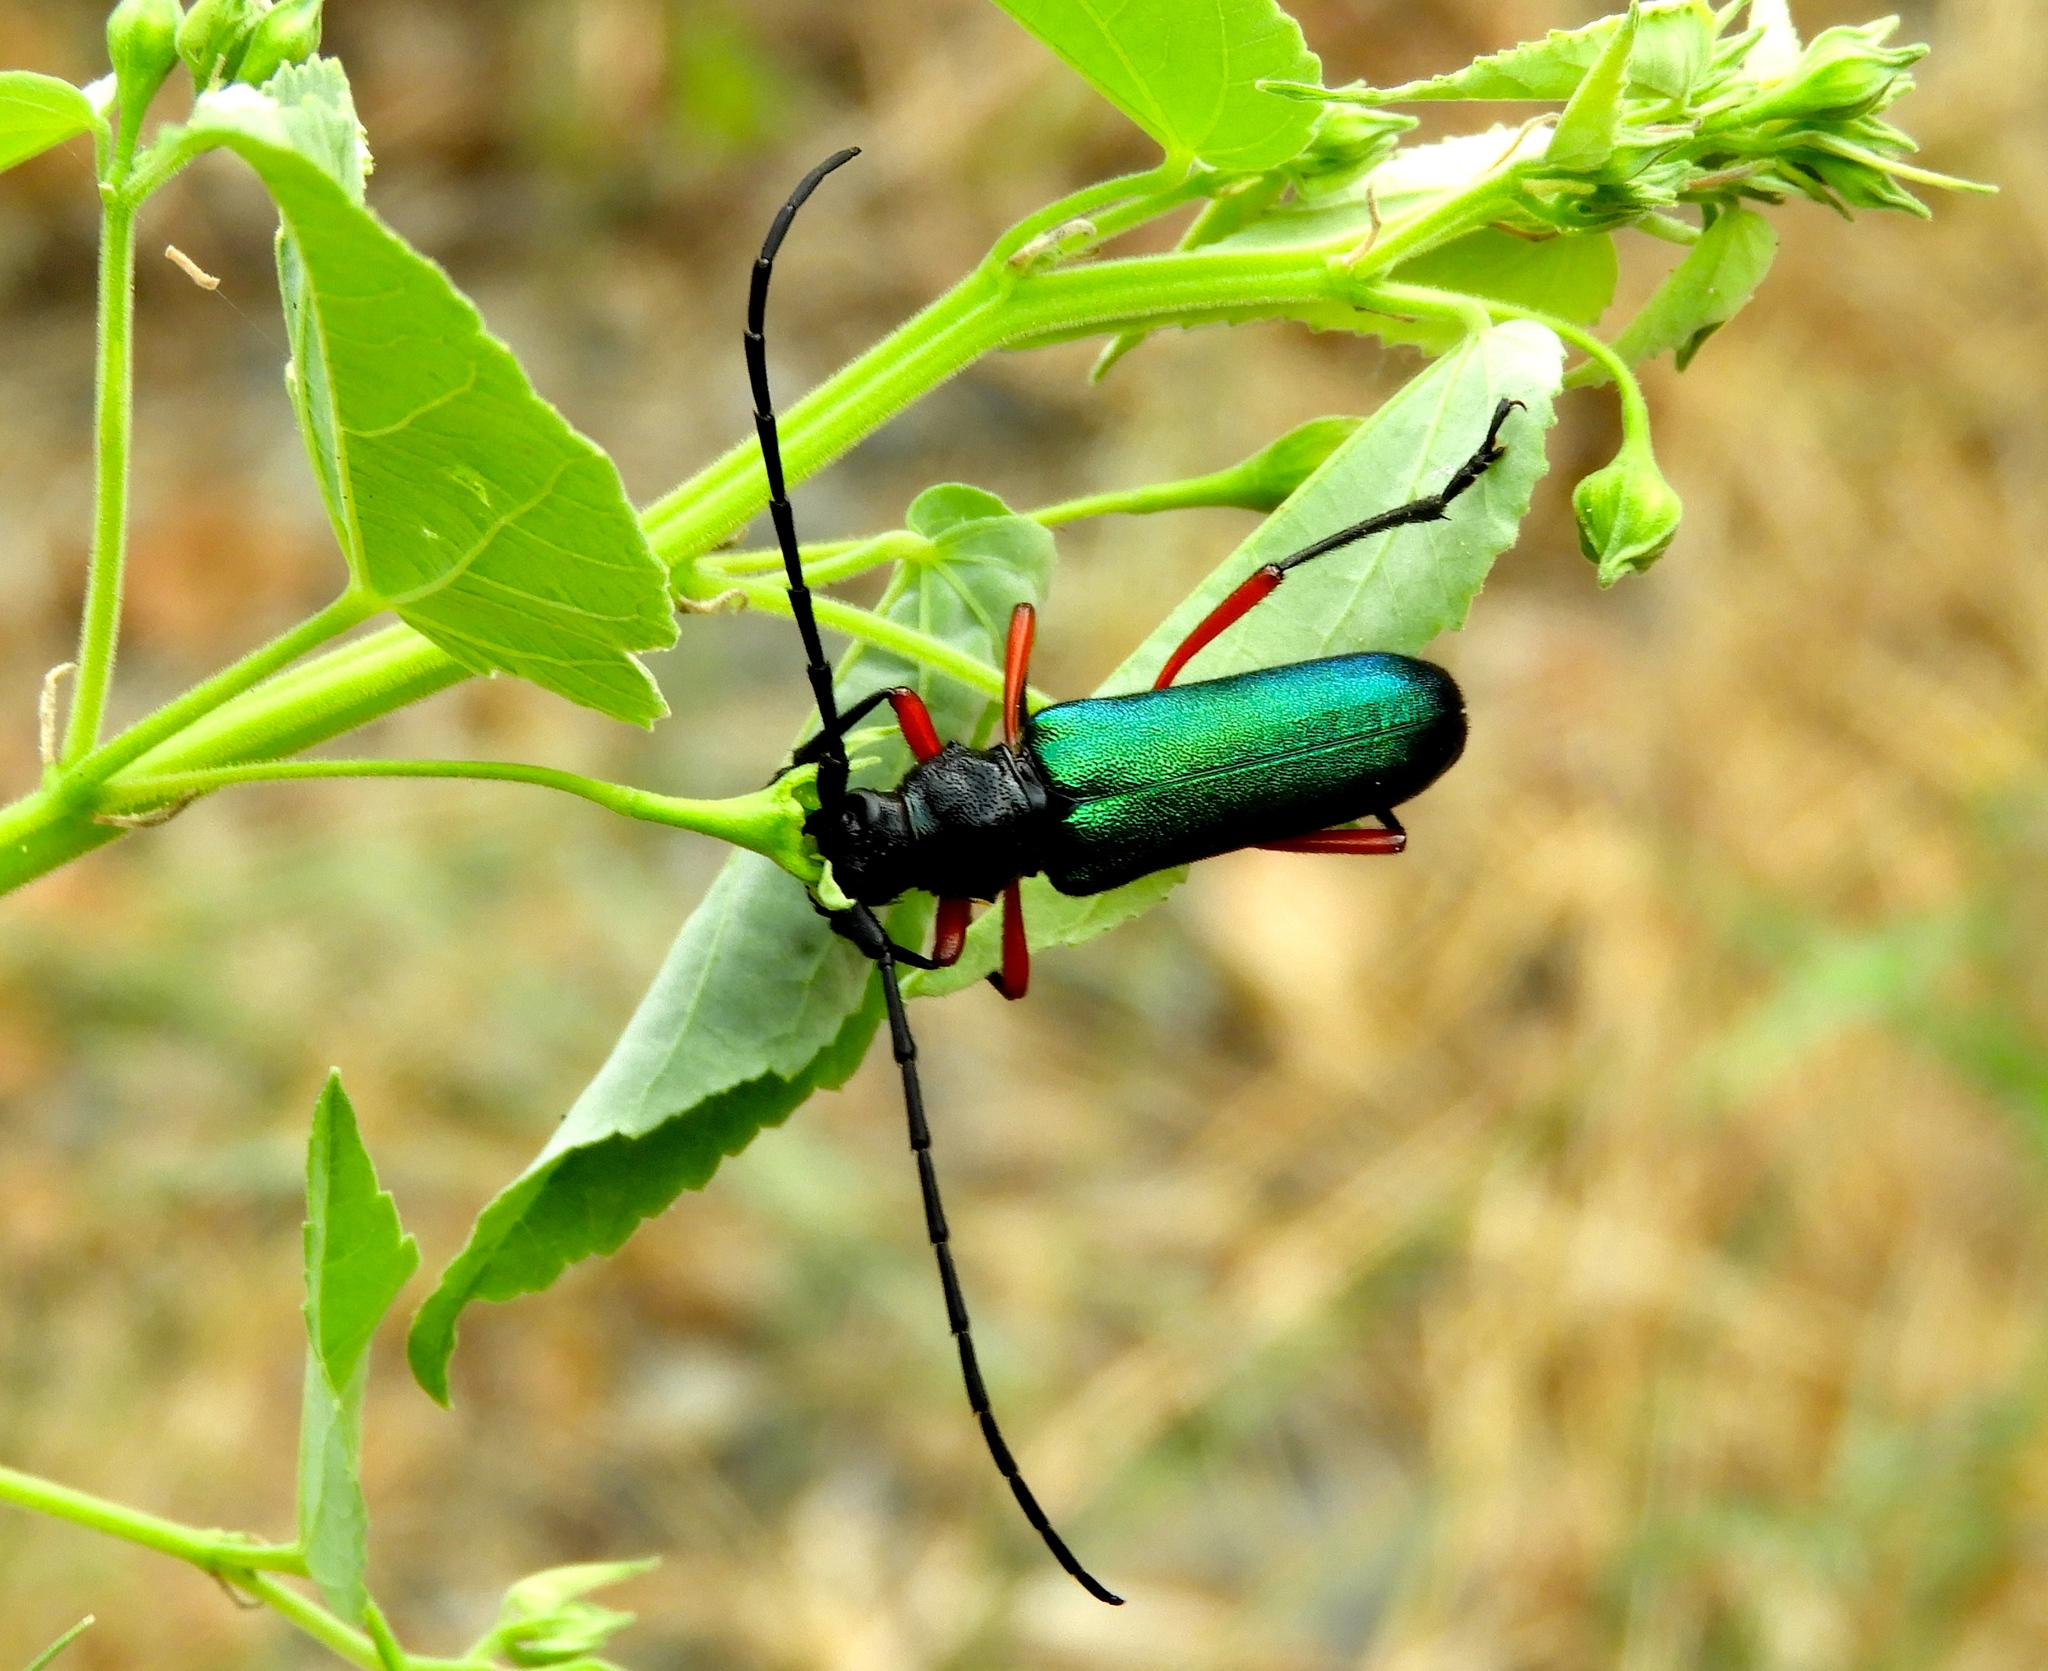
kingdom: Animalia
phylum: Arthropoda
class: Insecta
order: Coleoptera
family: Cerambycidae
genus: Deltaspis
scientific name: Deltaspis rubriventris
